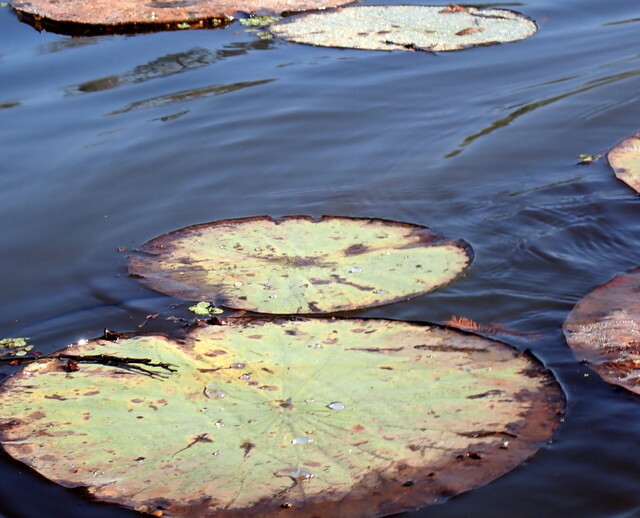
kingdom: Plantae
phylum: Tracheophyta
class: Magnoliopsida
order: Proteales
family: Nelumbonaceae
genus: Nelumbo
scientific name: Nelumbo lutea
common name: American lotus
